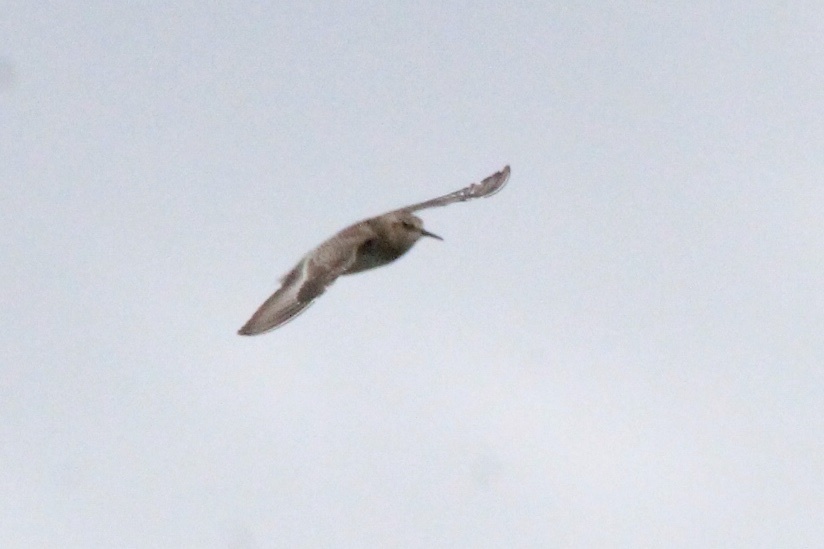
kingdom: Animalia
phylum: Chordata
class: Aves
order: Charadriiformes
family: Scolopacidae
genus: Calidris
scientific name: Calidris bairdii
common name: Baird's sandpiper
